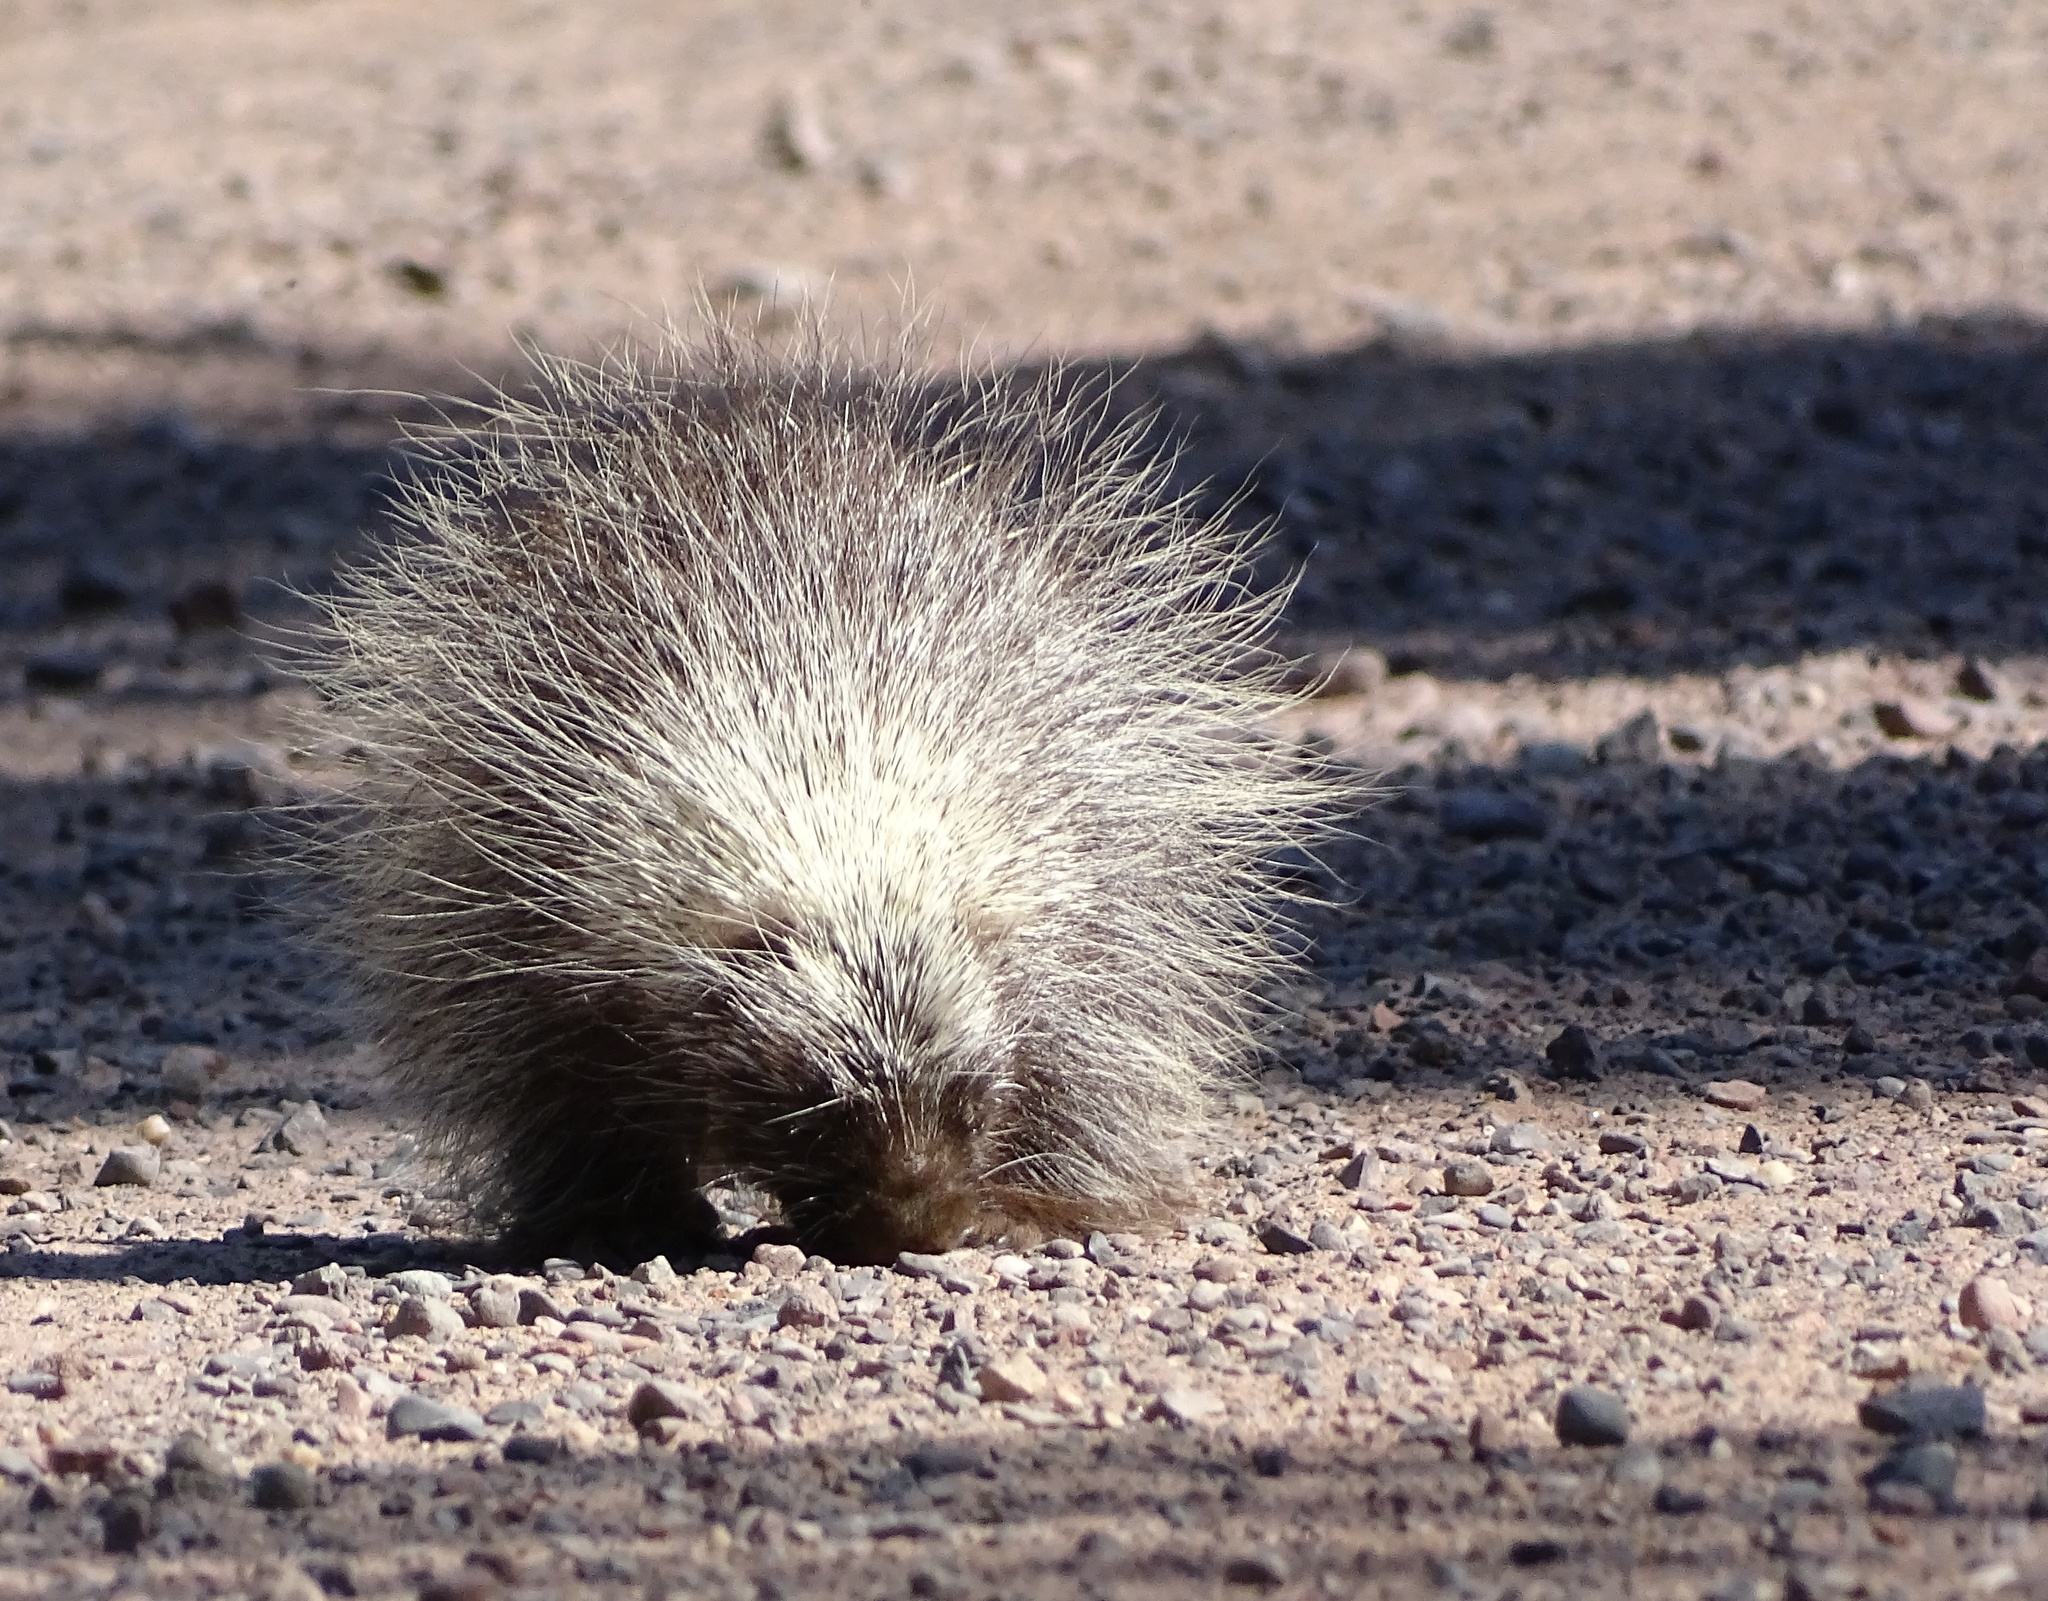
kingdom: Animalia
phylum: Chordata
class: Mammalia
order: Rodentia
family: Erethizontidae
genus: Erethizon
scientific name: Erethizon dorsatus
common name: North american porcupine
